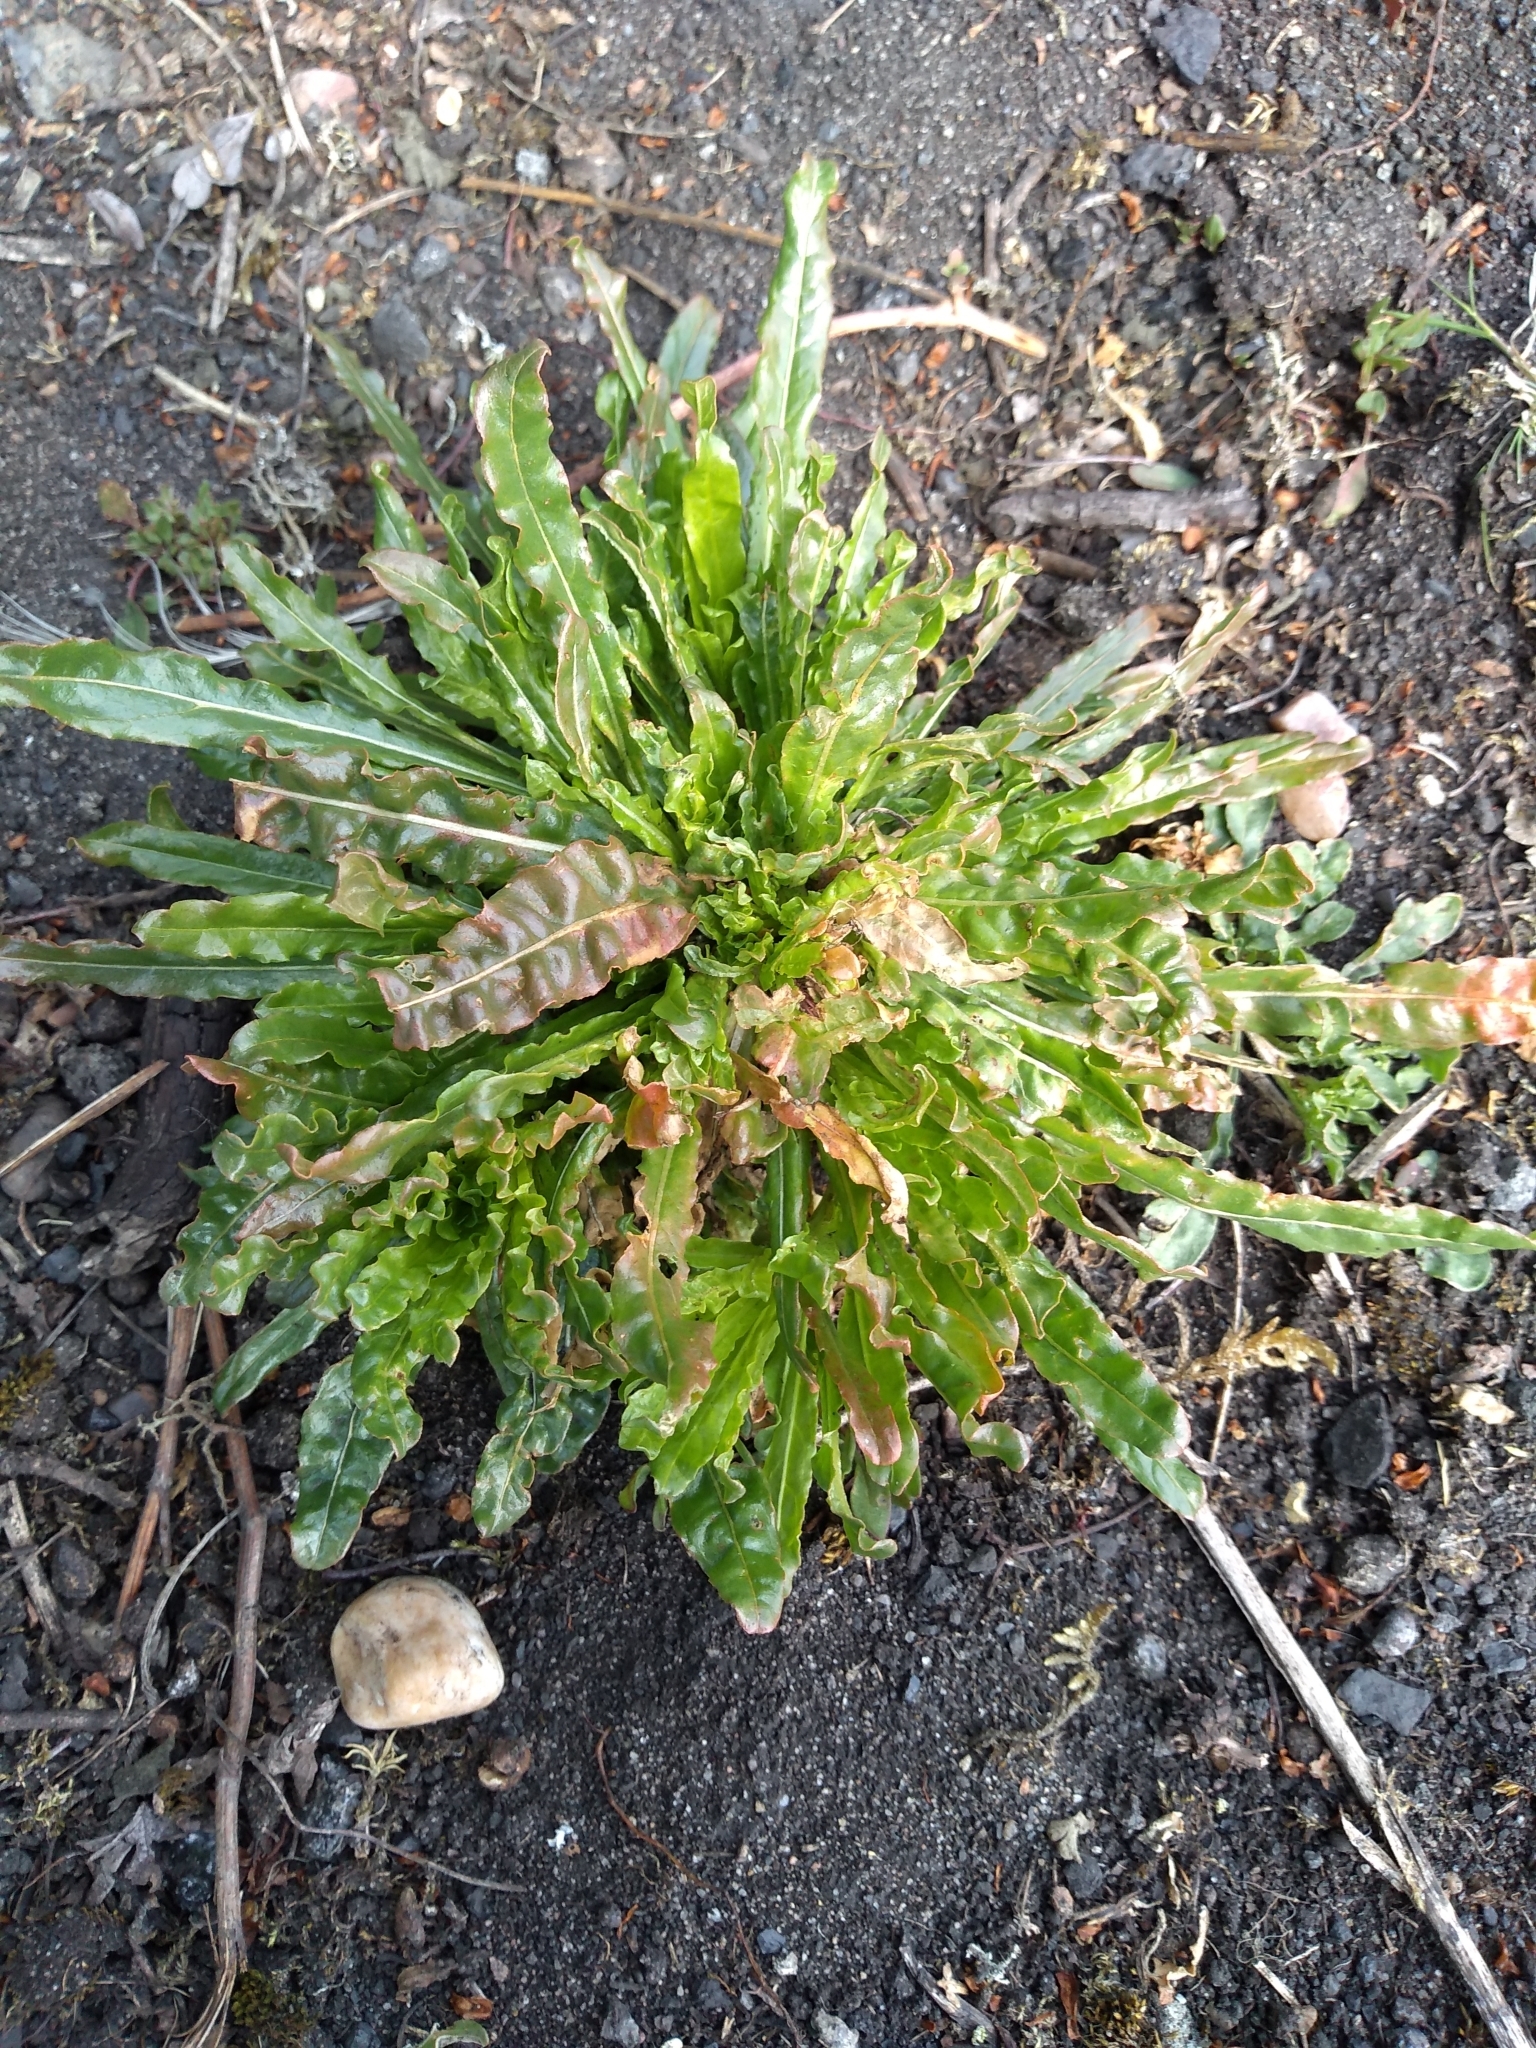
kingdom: Plantae
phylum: Tracheophyta
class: Magnoliopsida
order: Brassicales
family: Resedaceae
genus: Reseda
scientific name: Reseda luteola
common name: Weld
